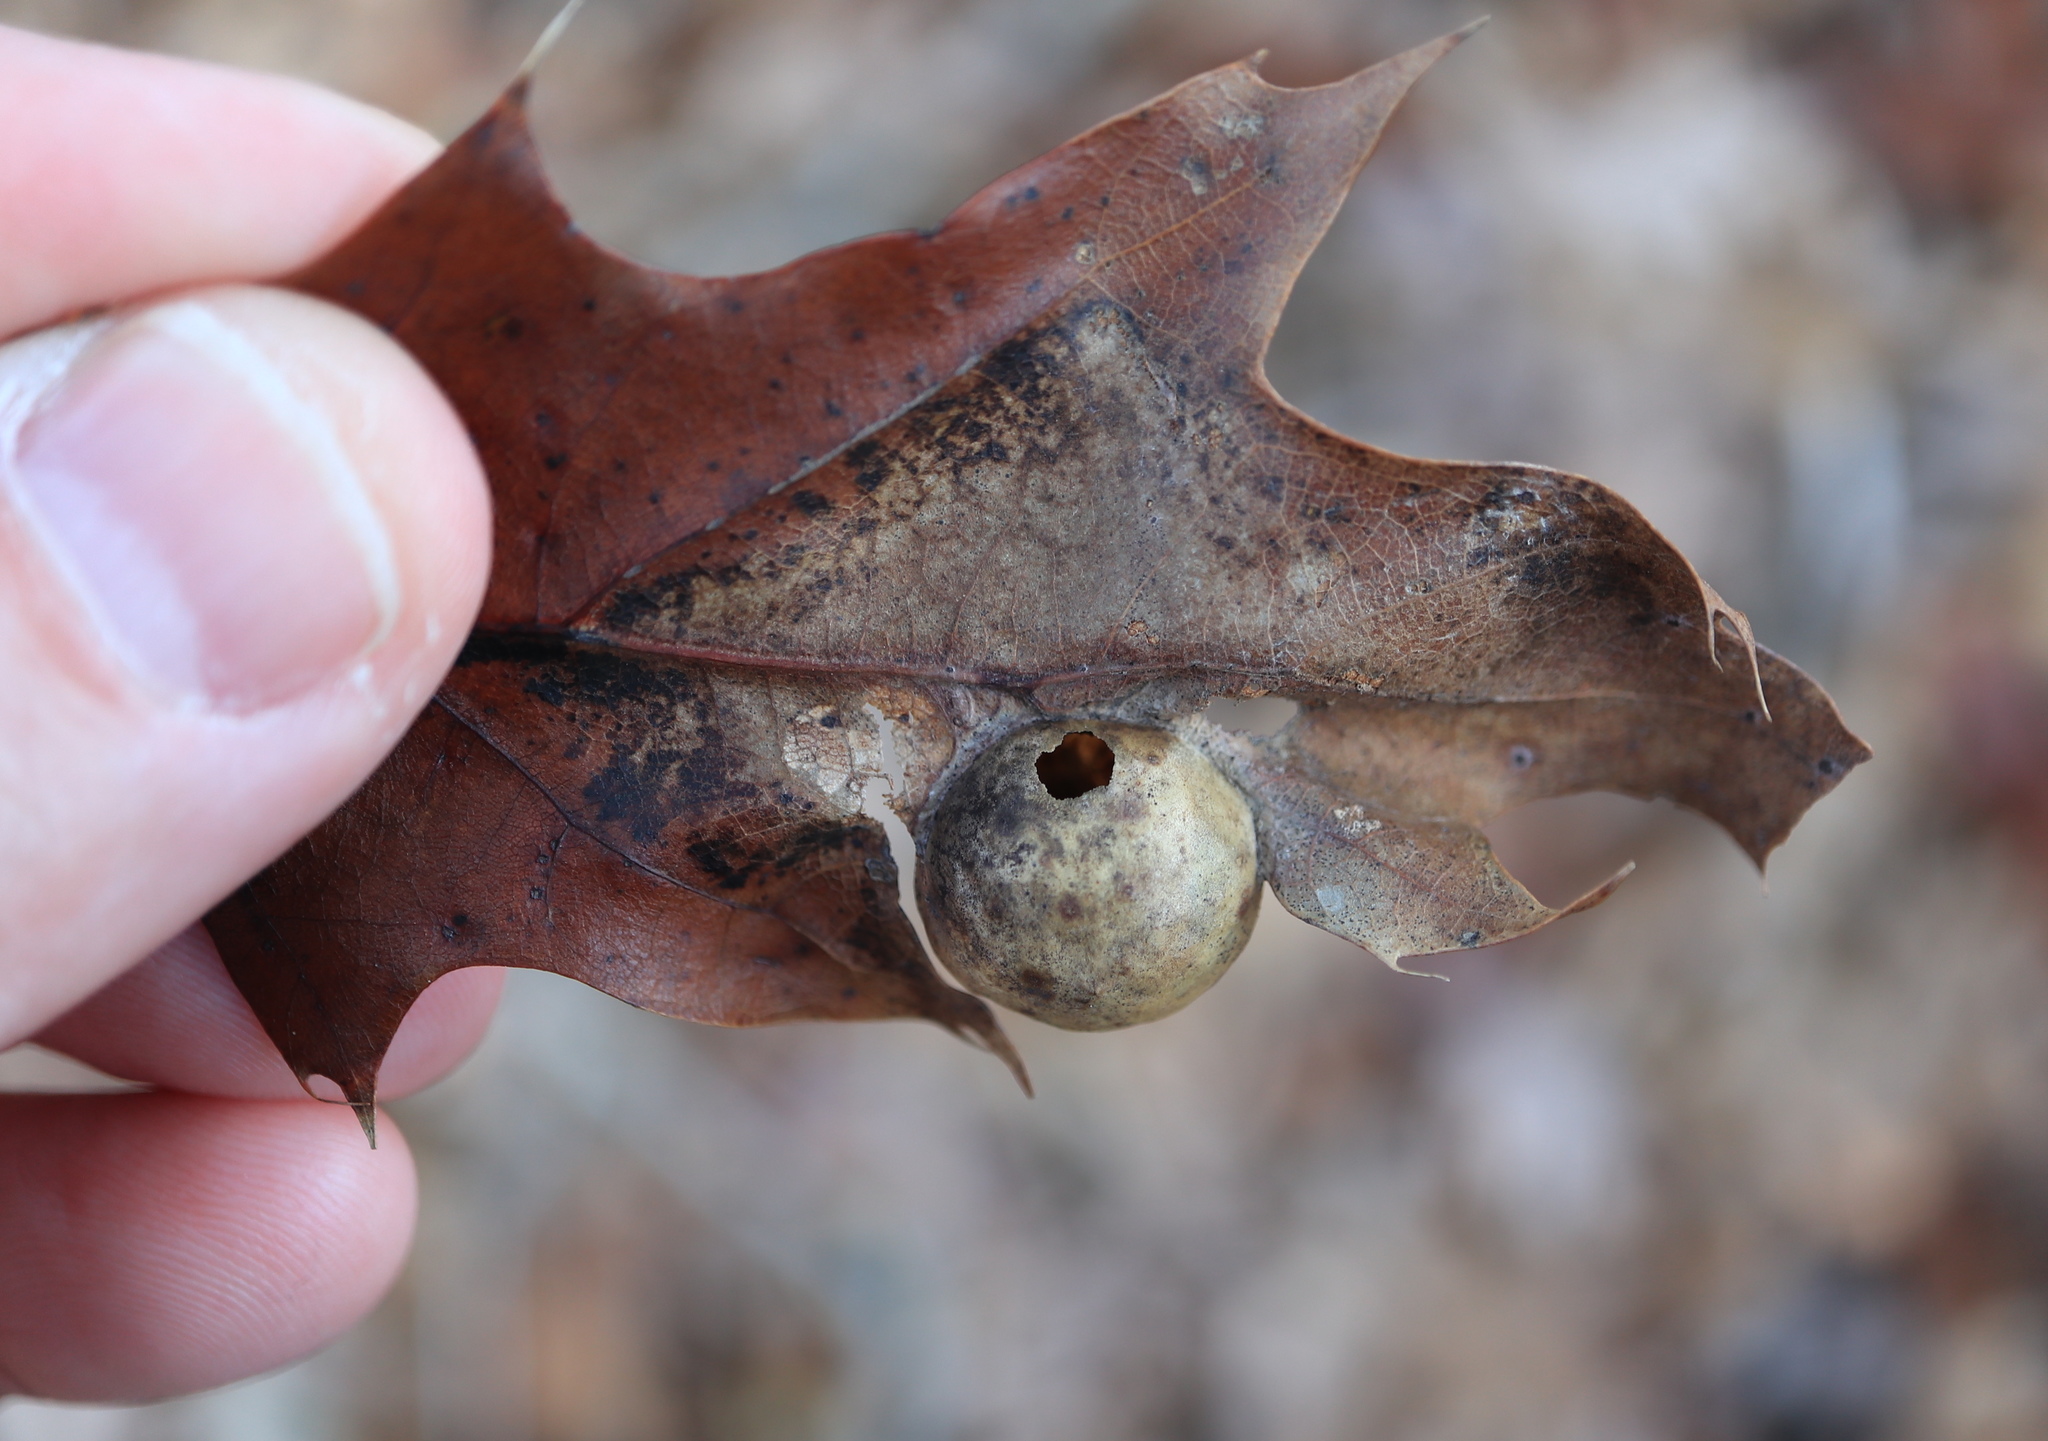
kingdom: Animalia
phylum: Arthropoda
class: Insecta
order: Hymenoptera
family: Cynipidae
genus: Amphibolips
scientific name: Amphibolips
